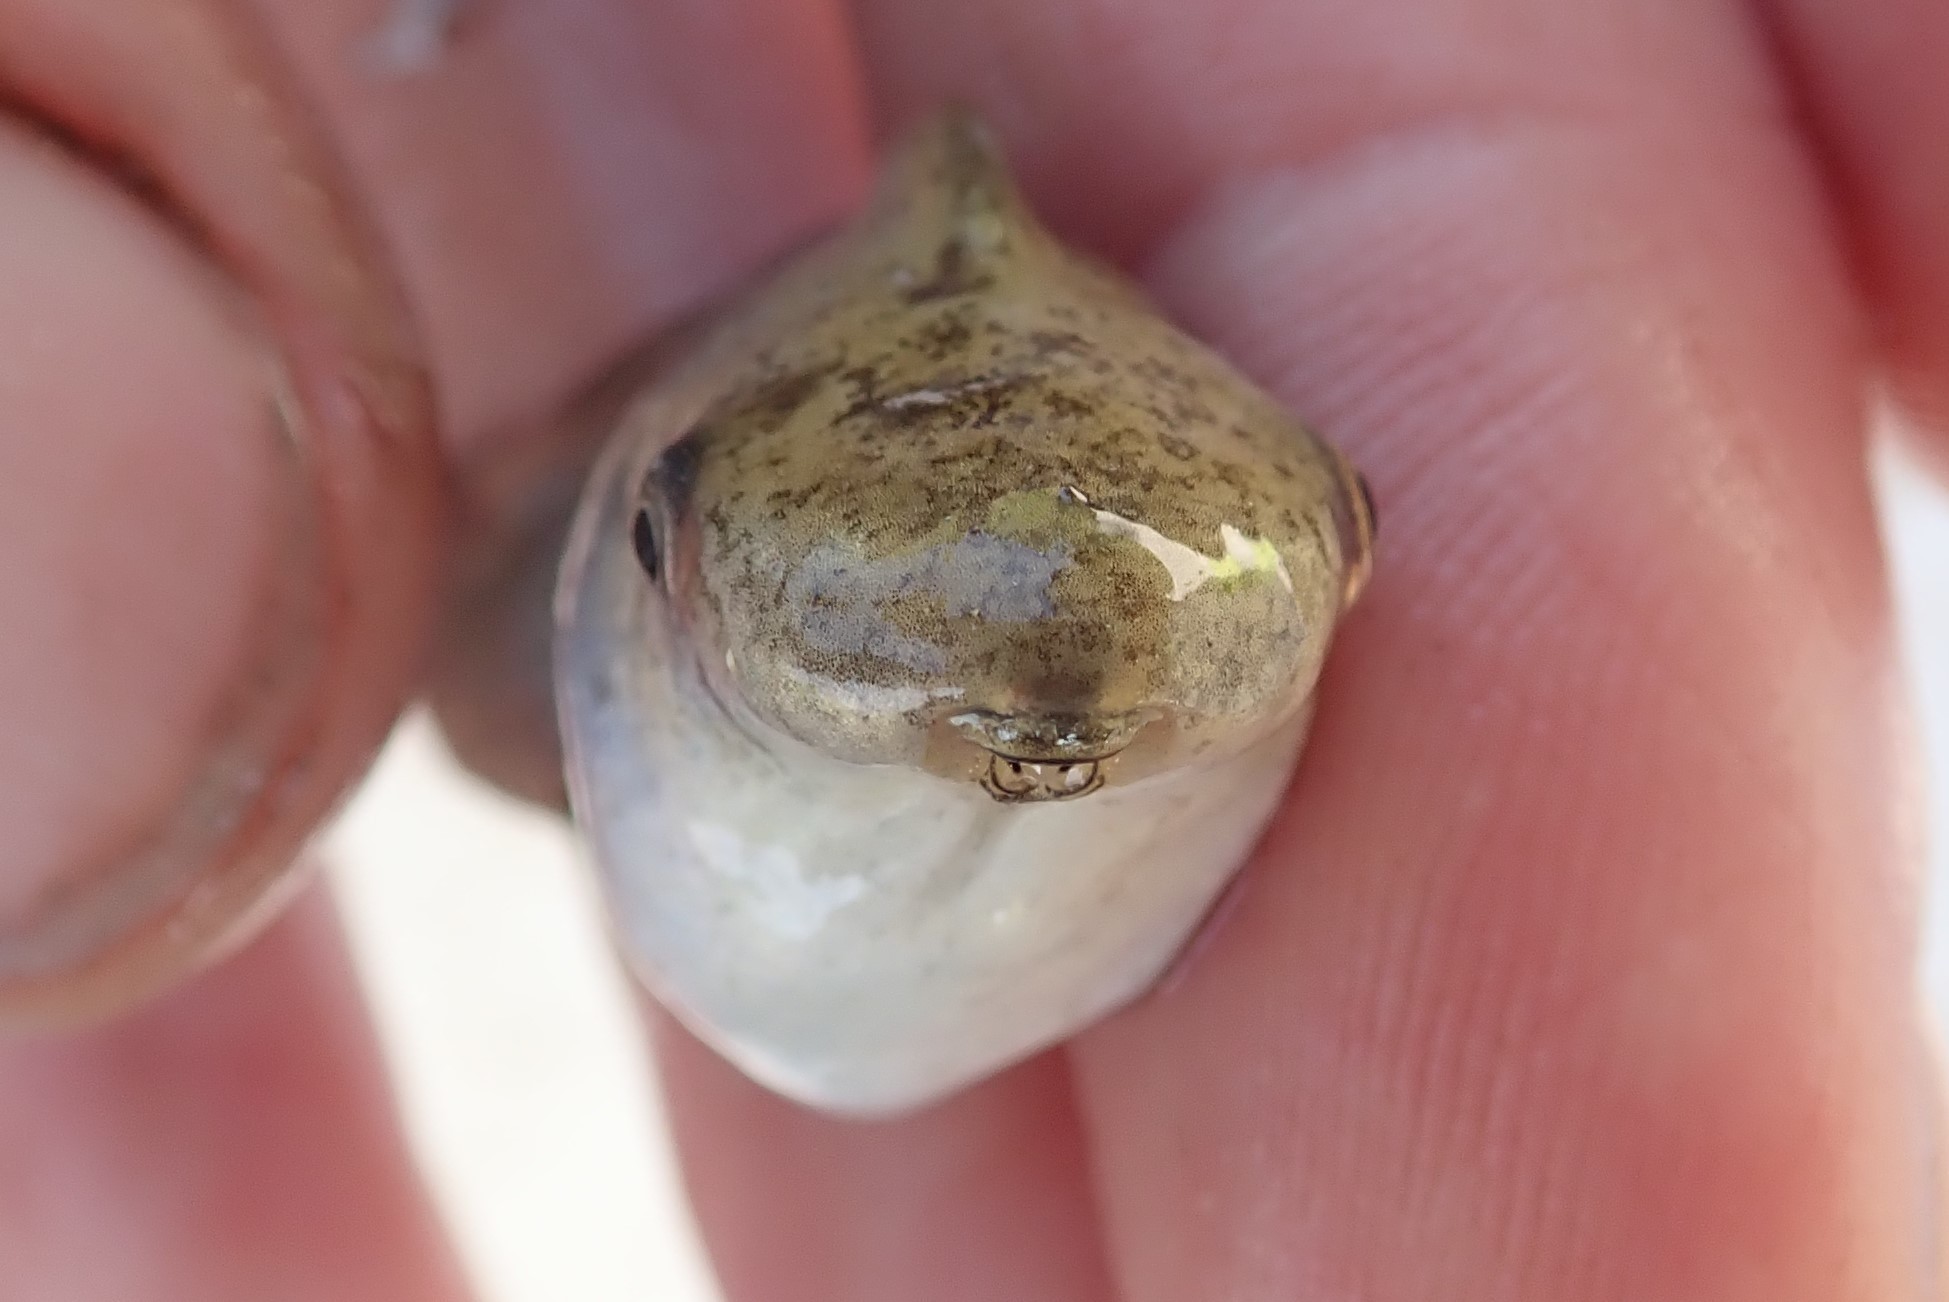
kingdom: Animalia
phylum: Chordata
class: Amphibia
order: Anura
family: Hyperoliidae
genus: Kassina
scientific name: Kassina senegalensis
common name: Senegal land frog
